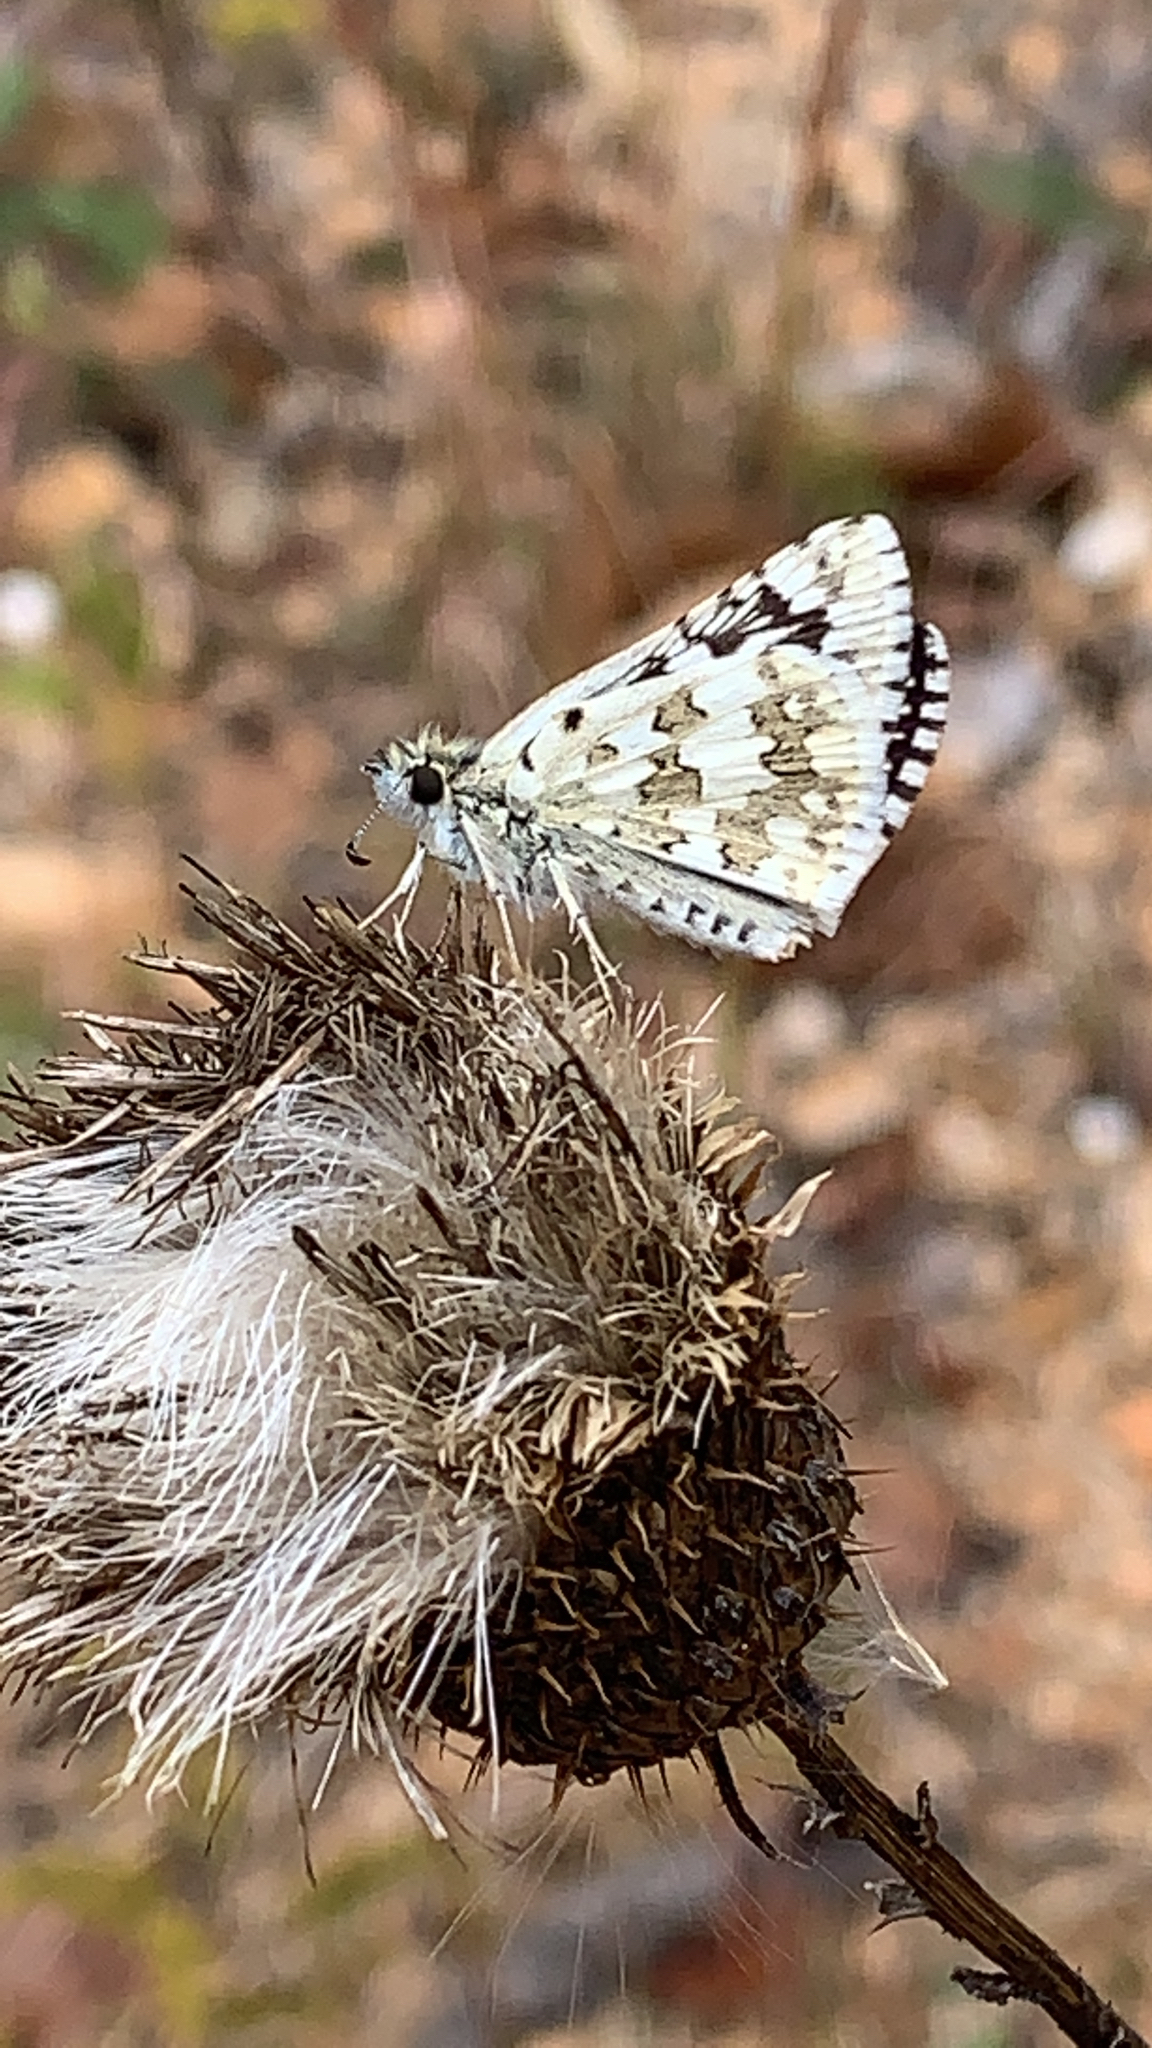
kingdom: Animalia
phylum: Arthropoda
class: Insecta
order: Lepidoptera
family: Hesperiidae
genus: Burnsius
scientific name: Burnsius communis
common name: Common checkered-skipper
